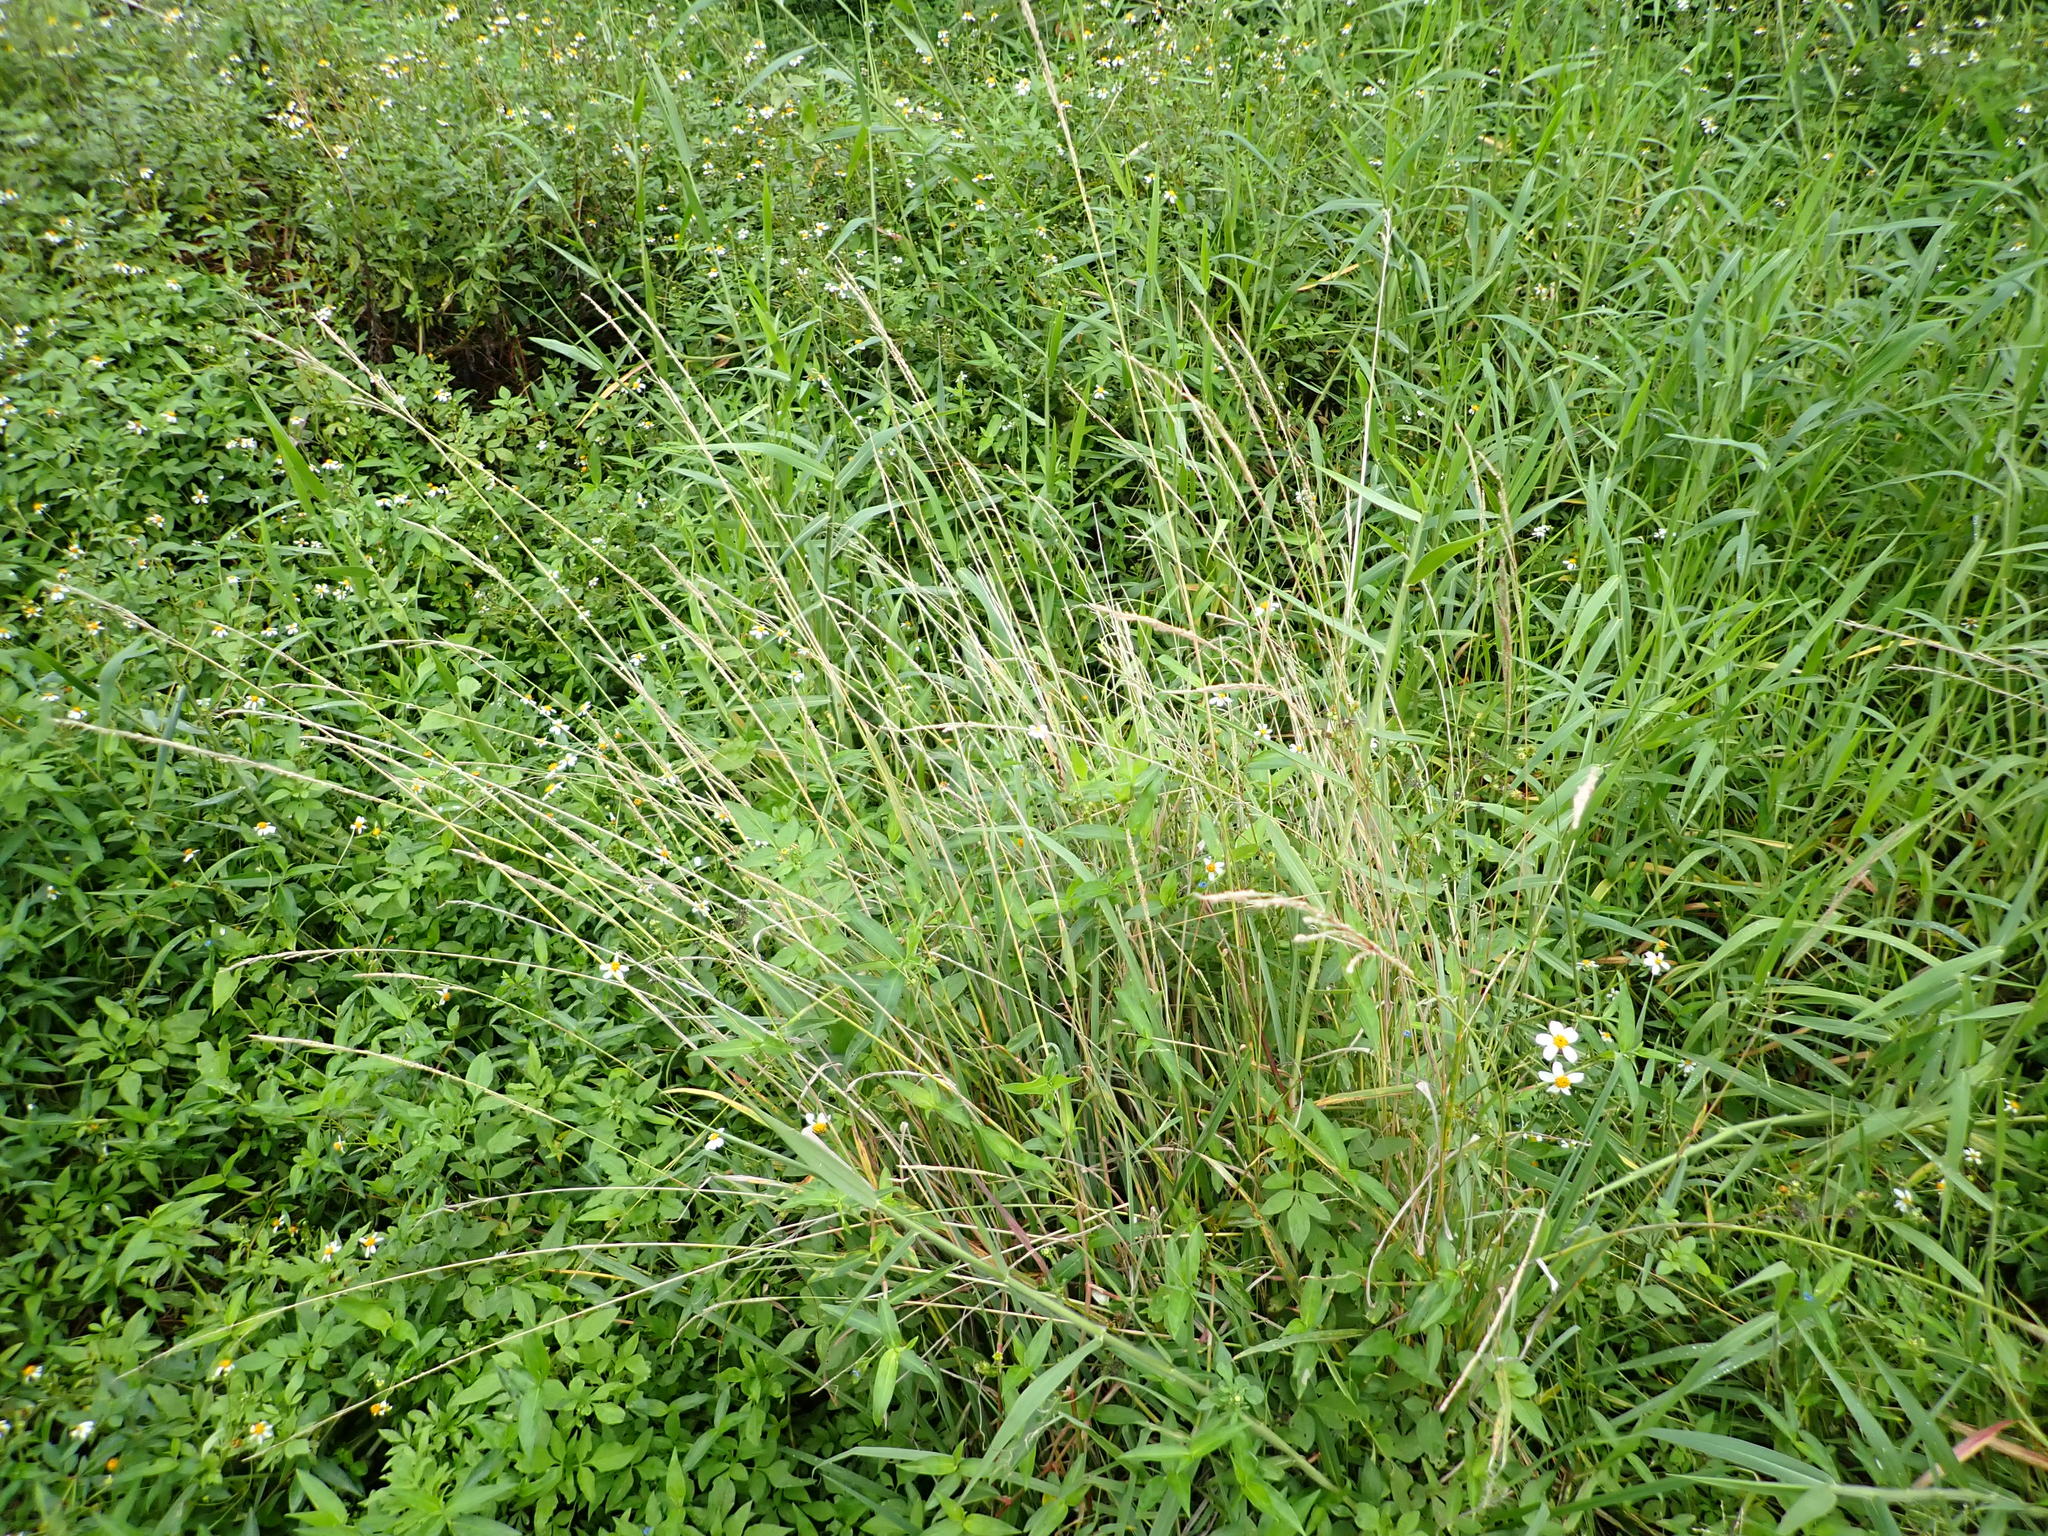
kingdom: Plantae
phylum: Tracheophyta
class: Liliopsida
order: Poales
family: Poaceae
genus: Paspalum
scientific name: Paspalum urvillei
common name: Vasey's grass
